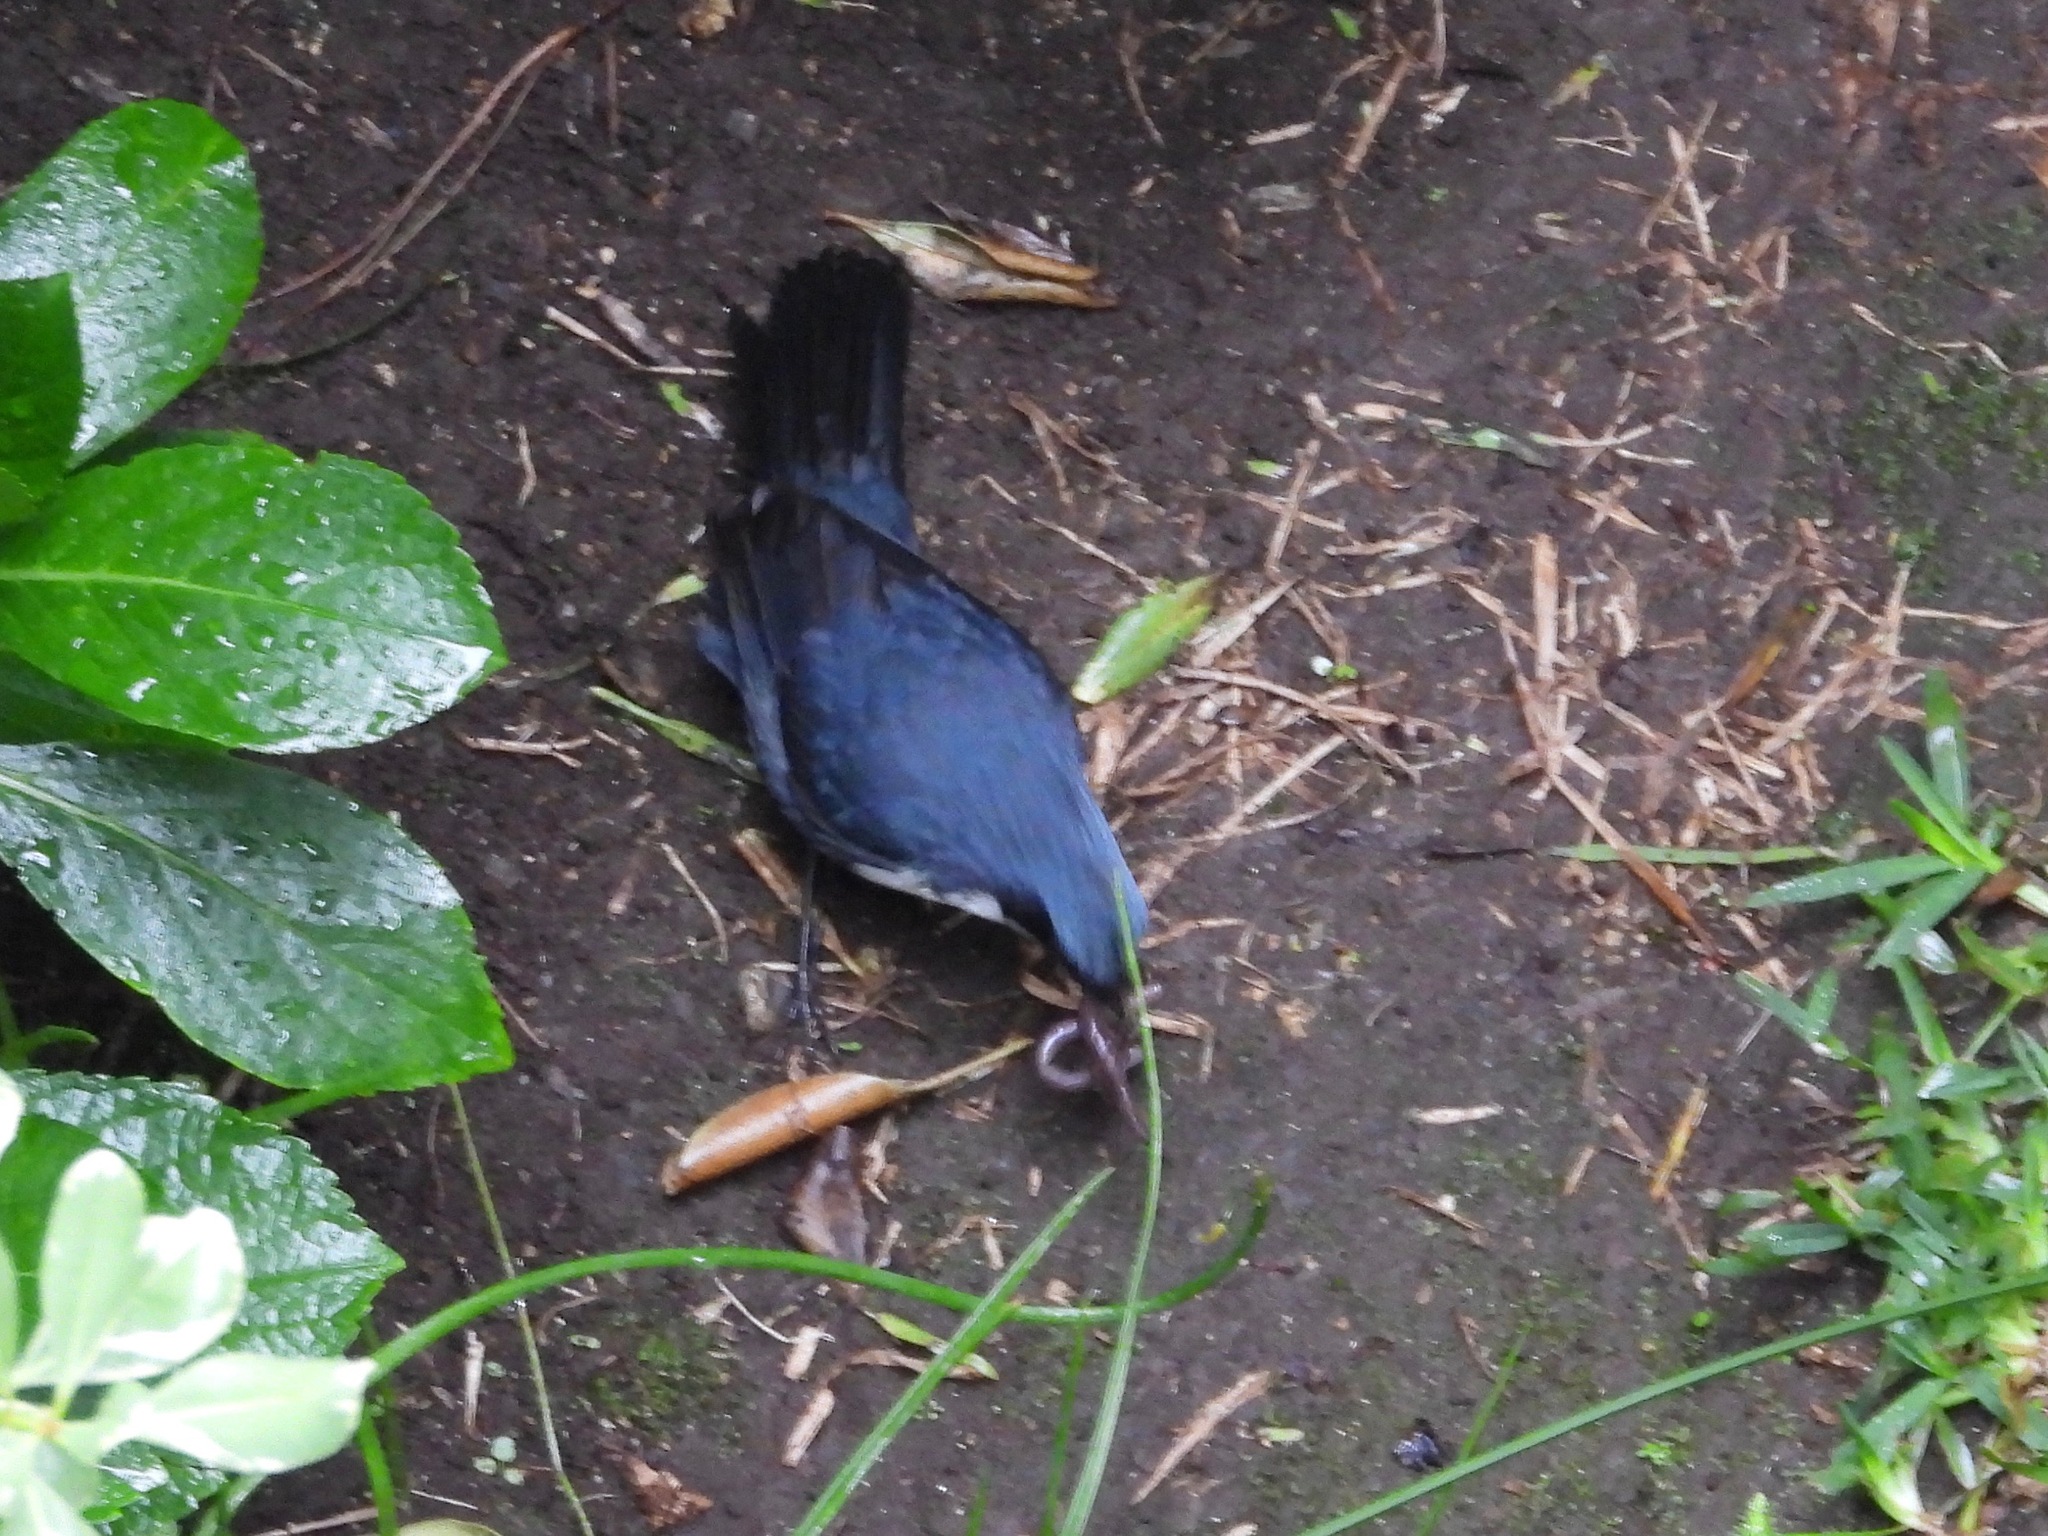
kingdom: Animalia
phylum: Chordata
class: Aves
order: Passeriformes
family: Mimidae
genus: Melanotis
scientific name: Melanotis hypoleucus
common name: Blue-and-white mockingbird
